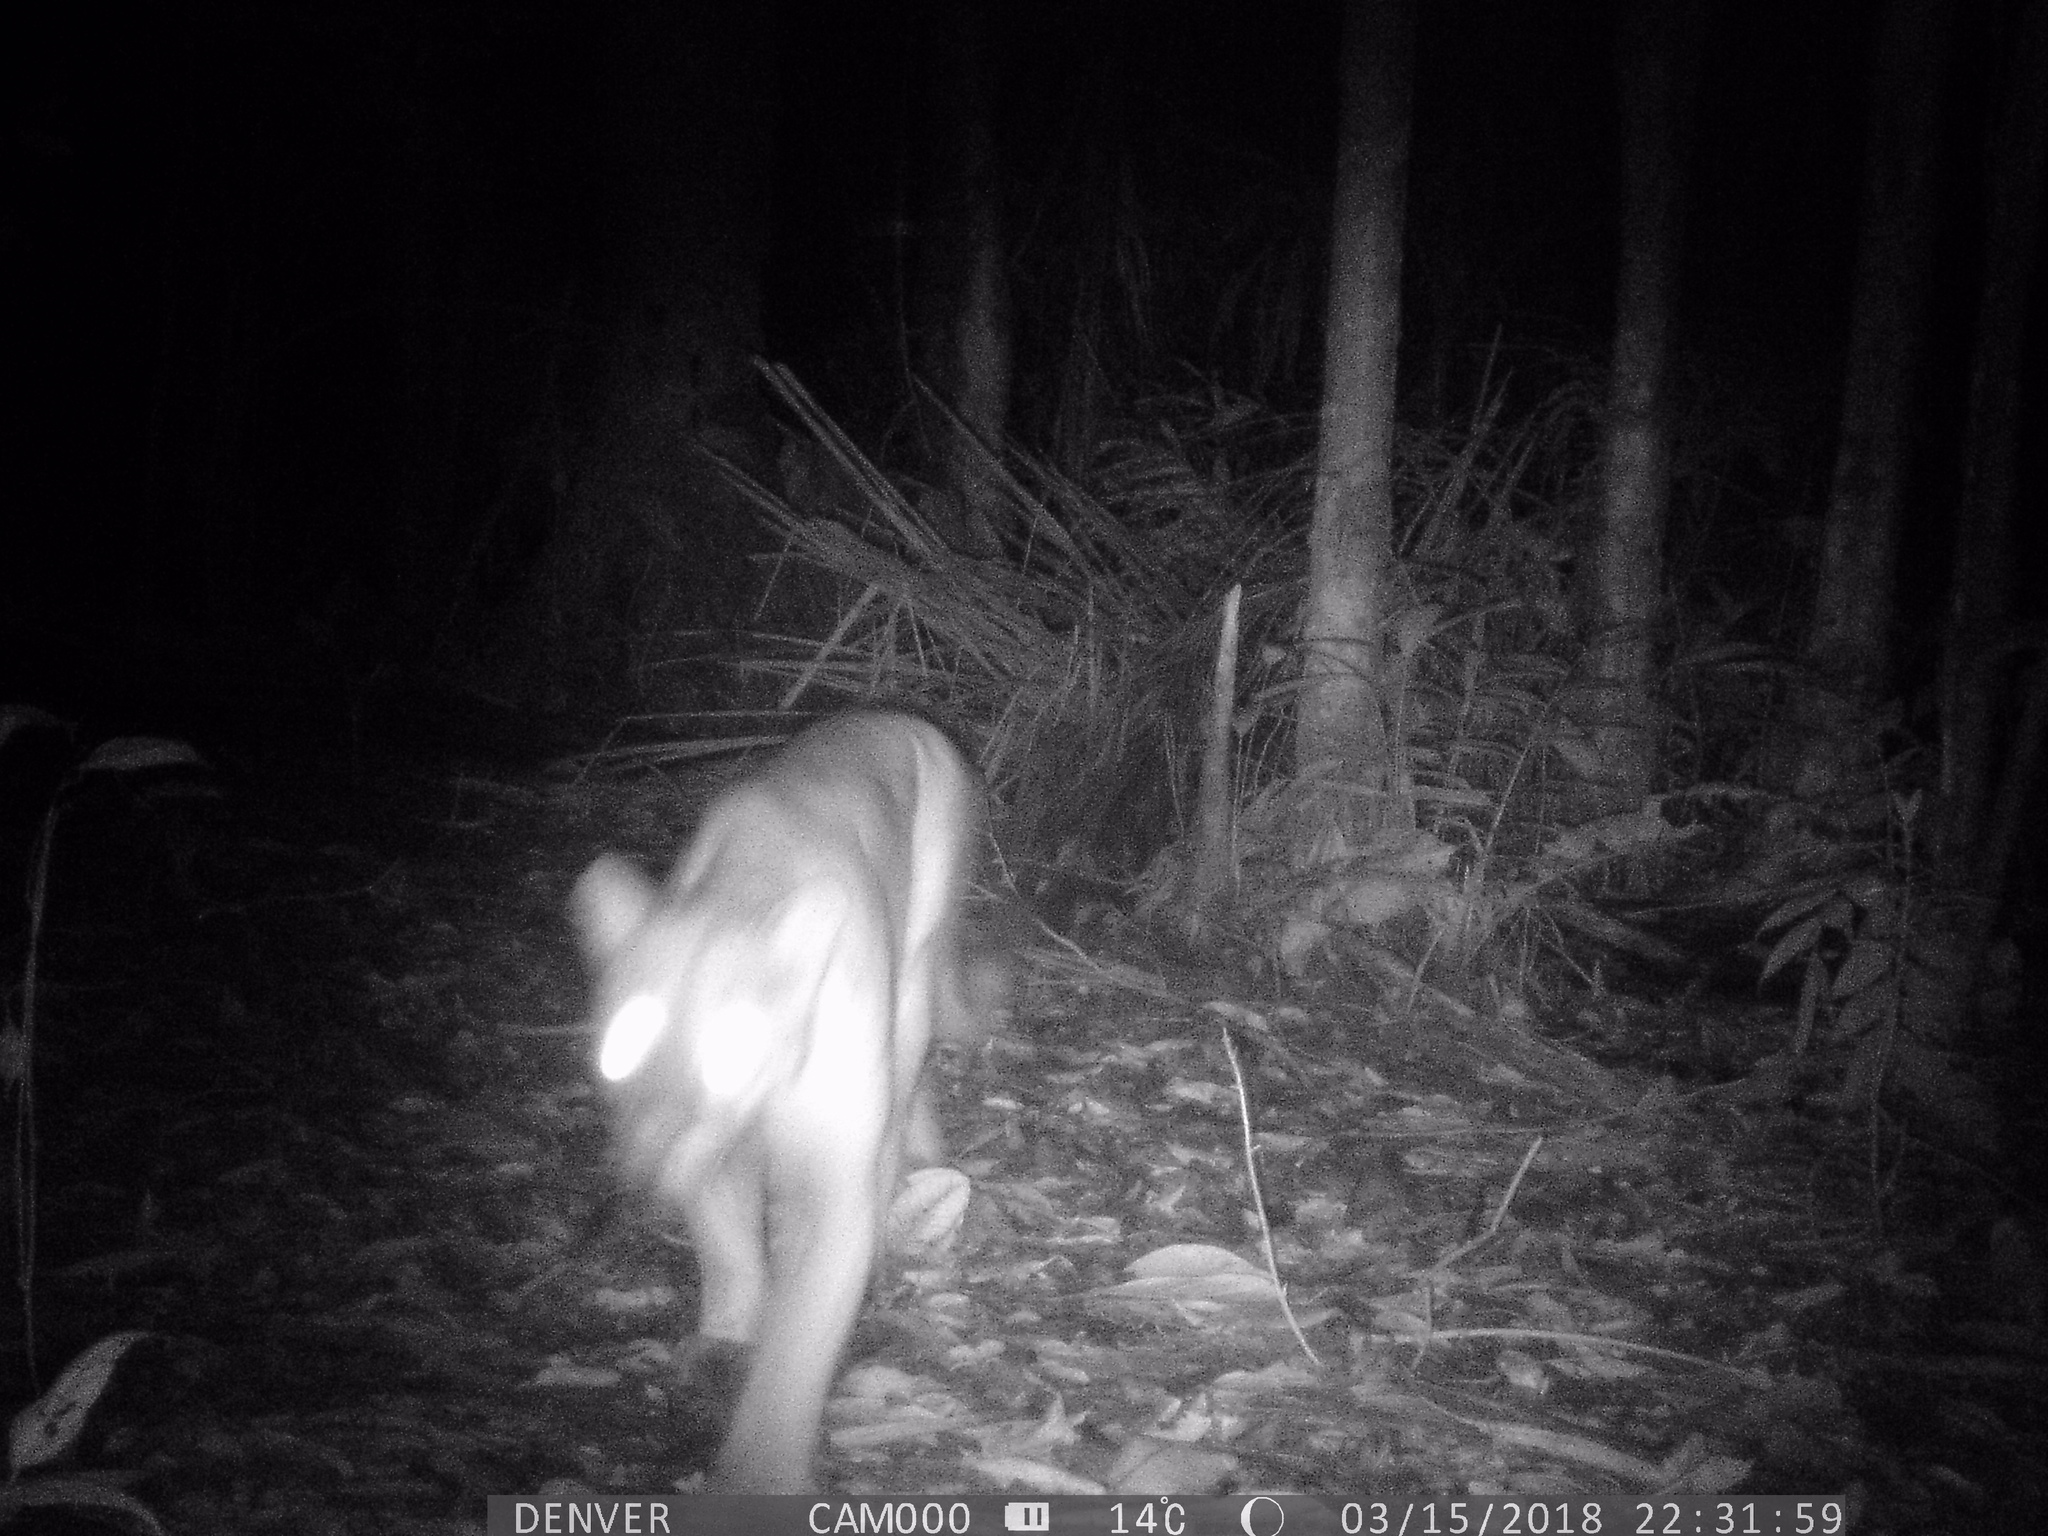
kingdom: Animalia
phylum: Chordata
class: Mammalia
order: Carnivora
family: Felidae
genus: Puma
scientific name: Puma concolor
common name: Puma
